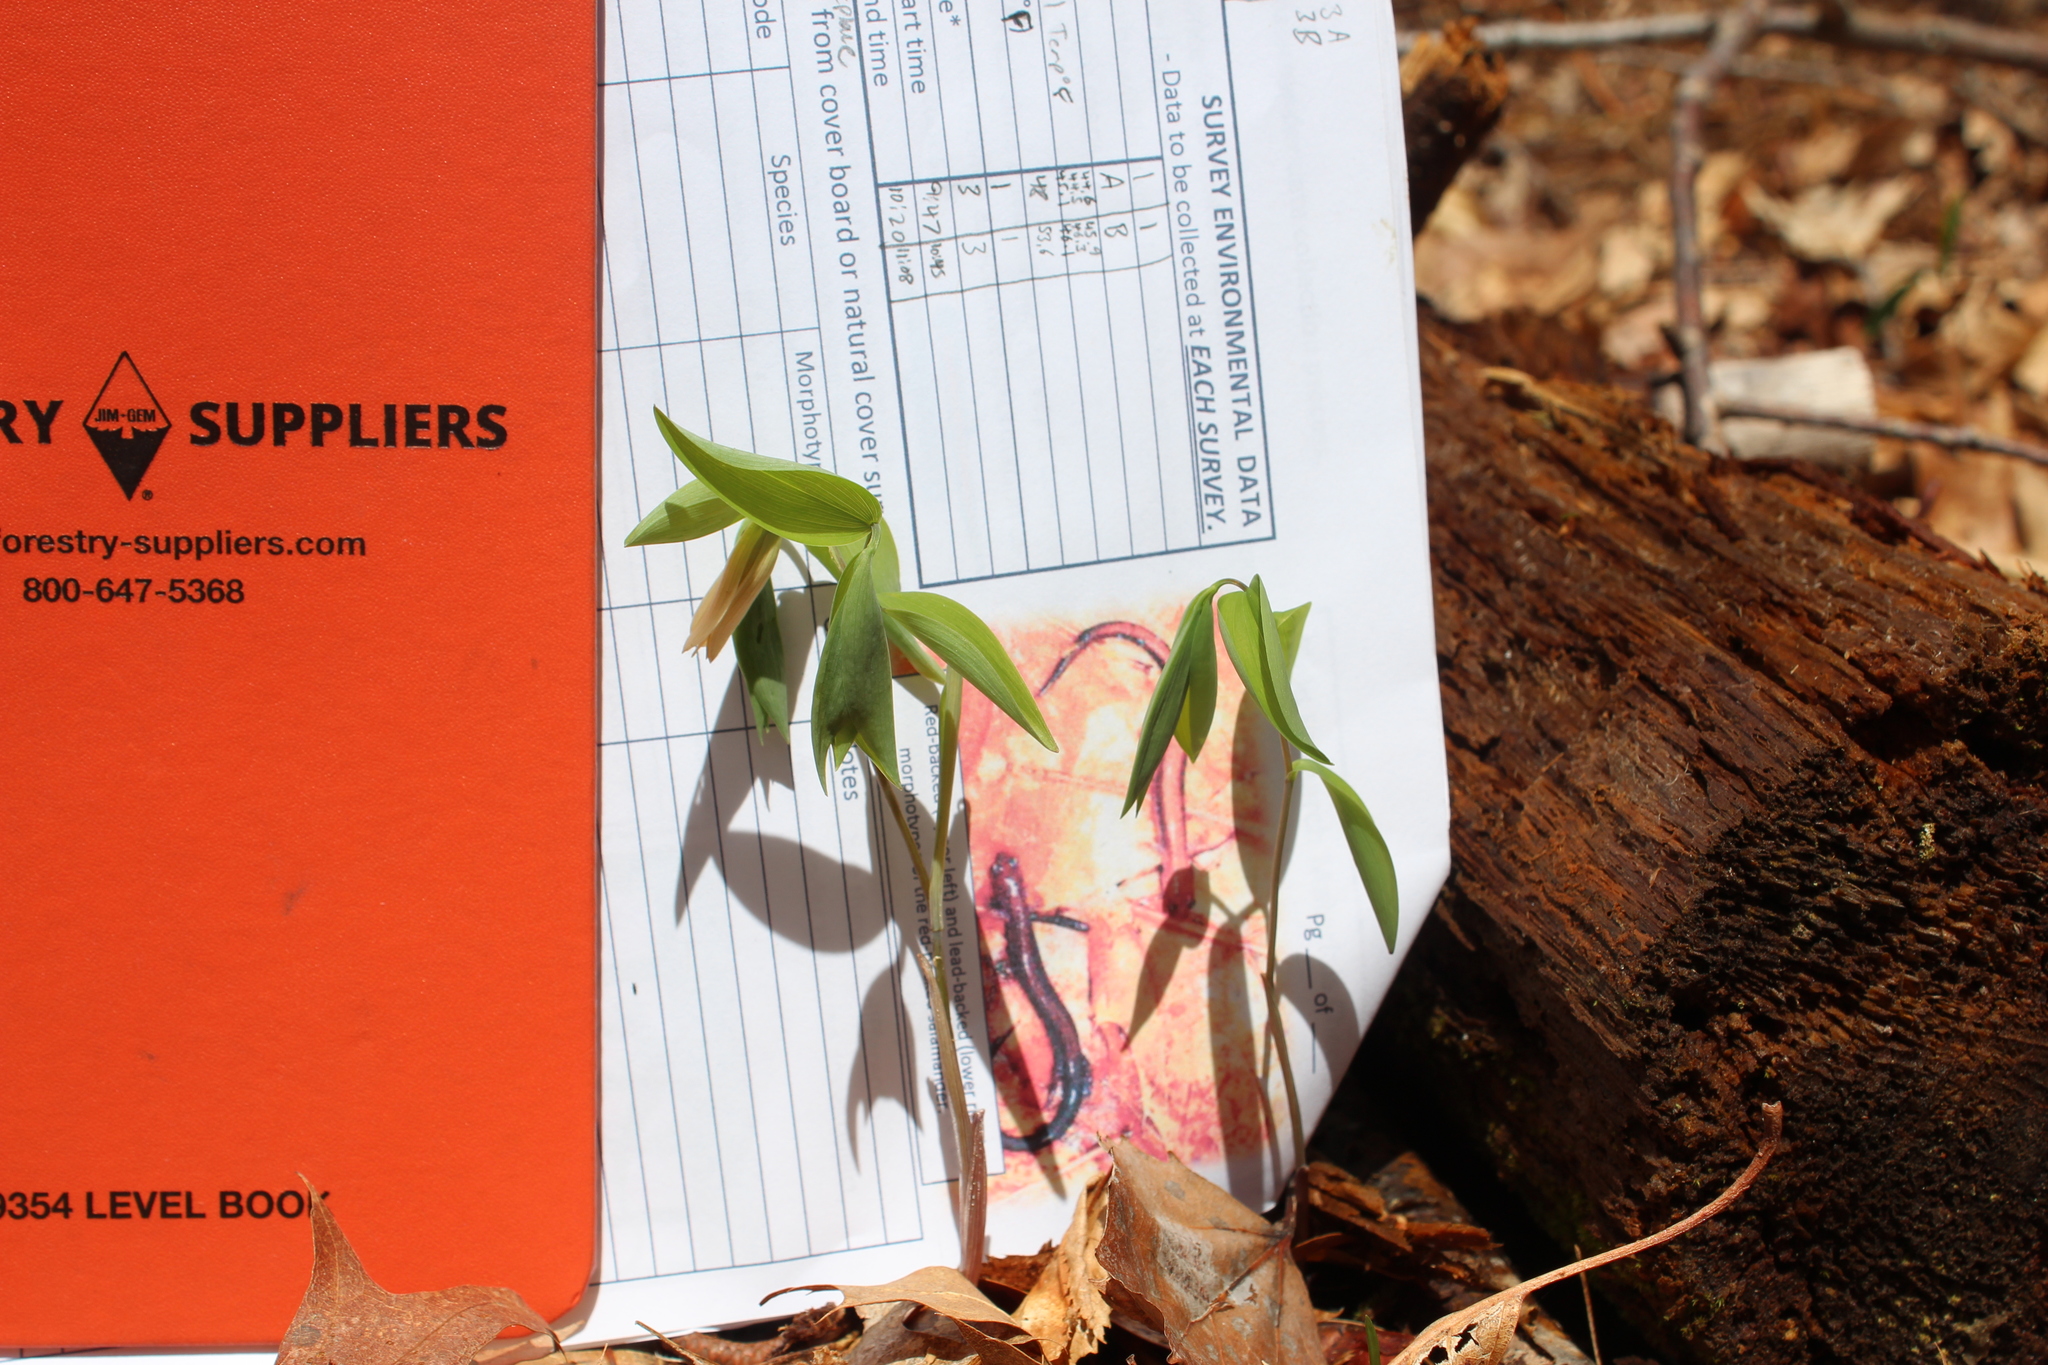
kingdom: Plantae
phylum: Tracheophyta
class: Liliopsida
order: Liliales
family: Colchicaceae
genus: Uvularia
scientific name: Uvularia sessilifolia
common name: Straw-lily
